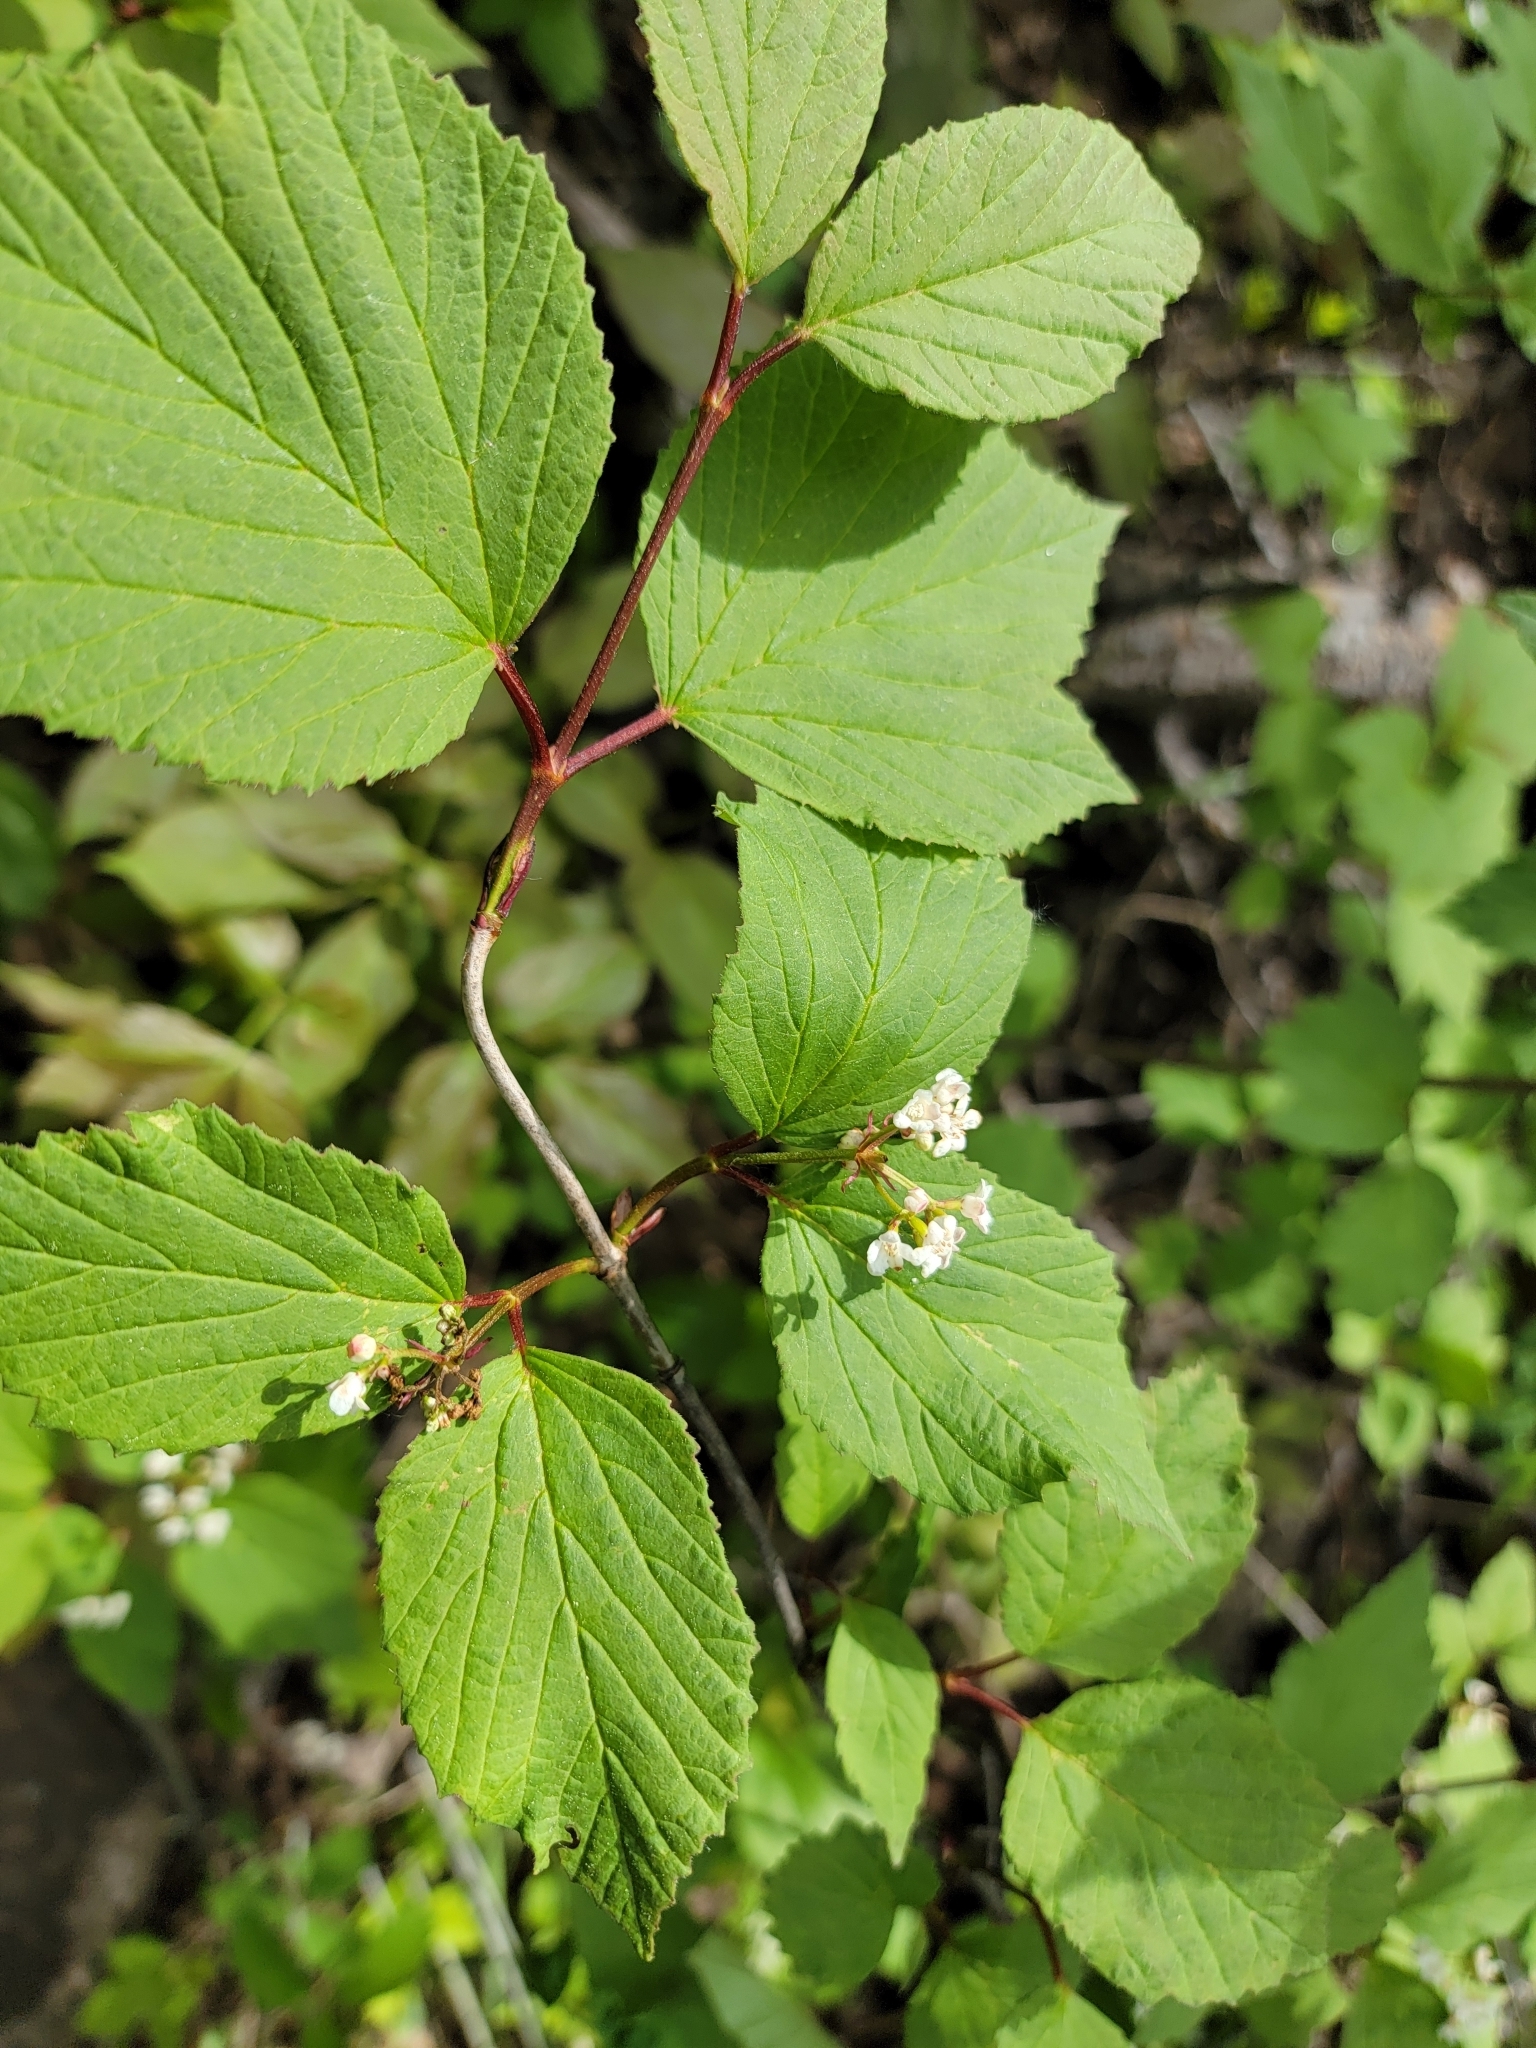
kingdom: Plantae
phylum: Tracheophyta
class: Magnoliopsida
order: Dipsacales
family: Viburnaceae
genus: Viburnum
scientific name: Viburnum edule
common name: Mooseberry
